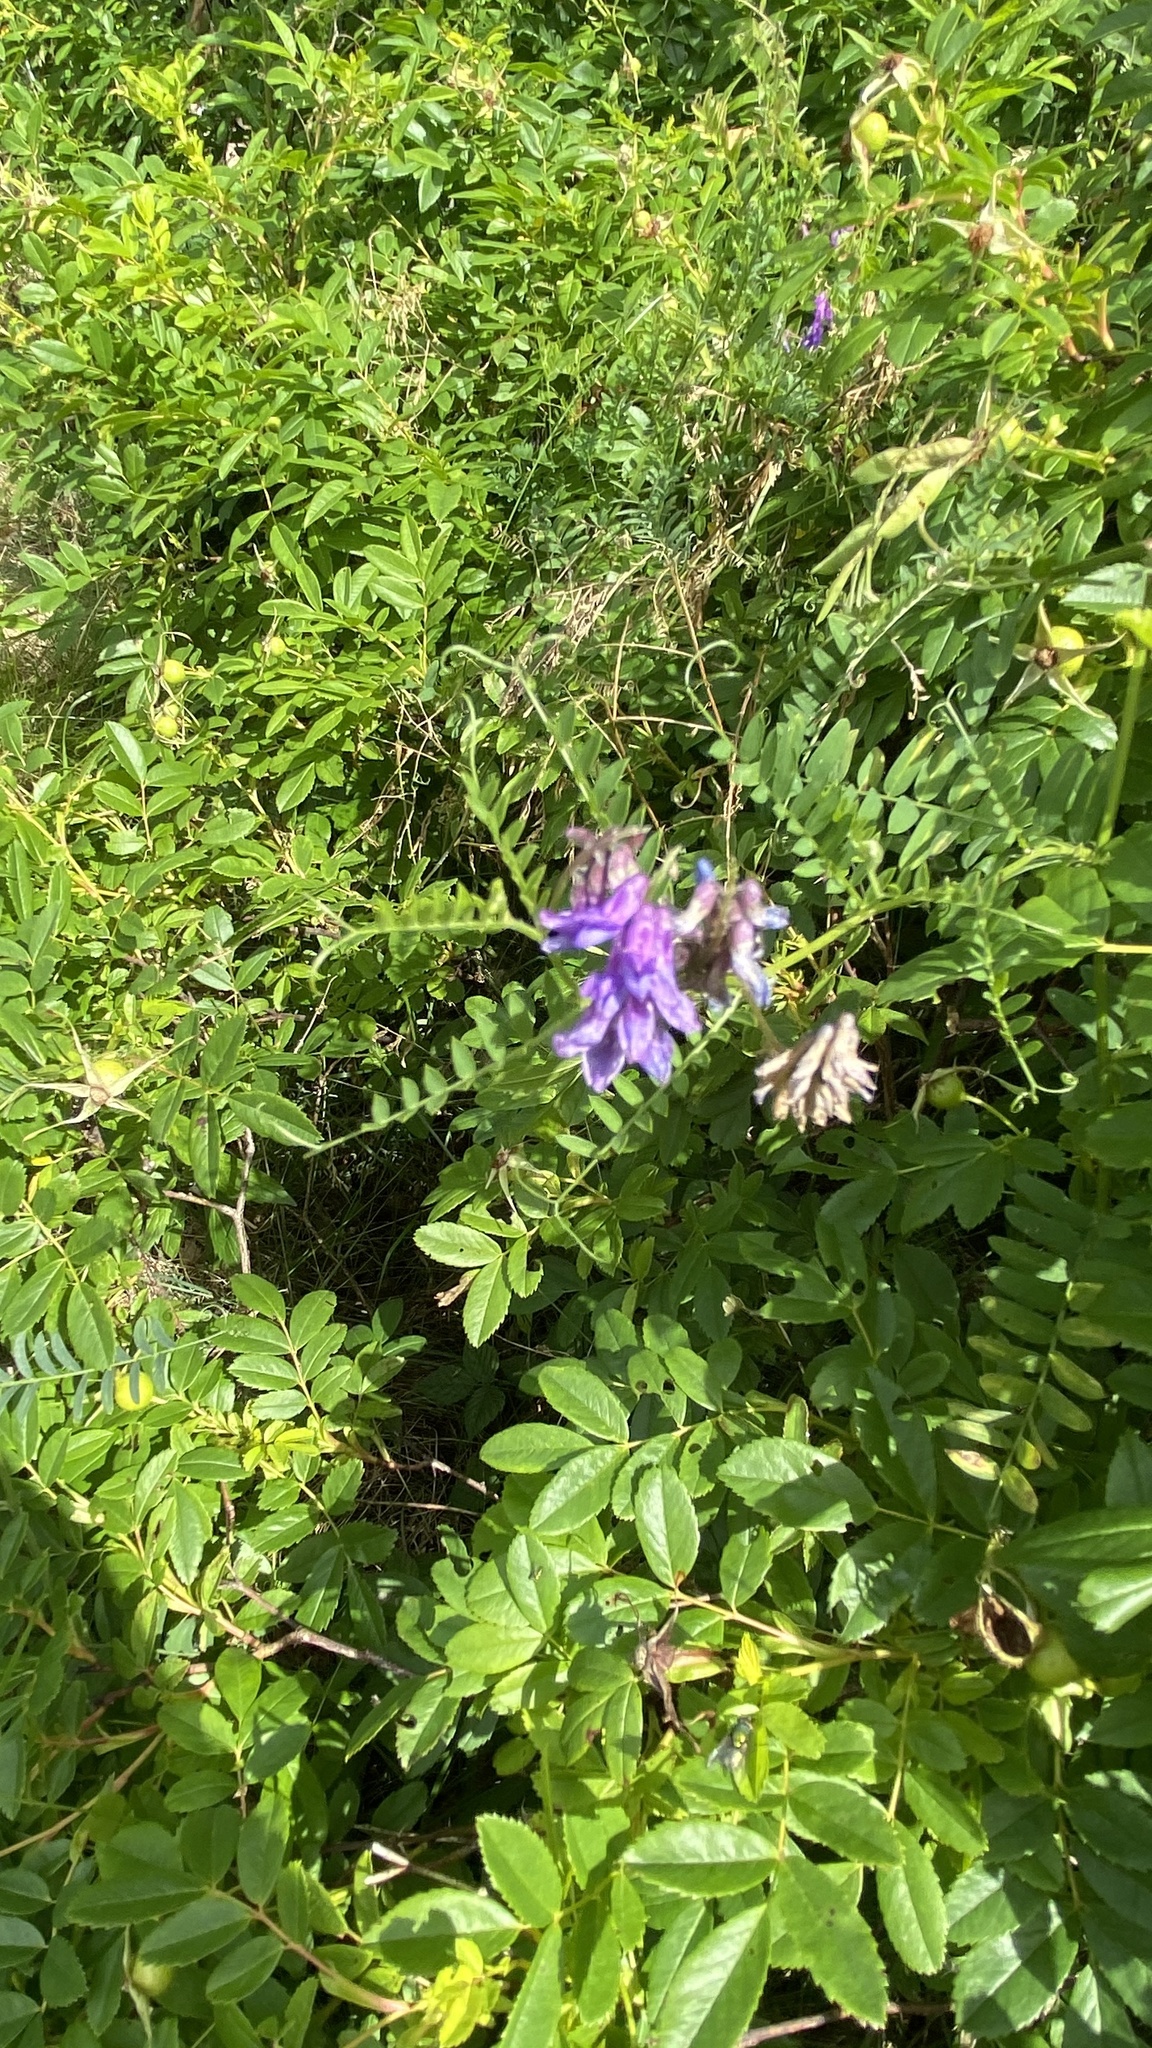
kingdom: Plantae
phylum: Tracheophyta
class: Magnoliopsida
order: Fabales
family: Fabaceae
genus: Vicia
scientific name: Vicia cracca
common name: Bird vetch
